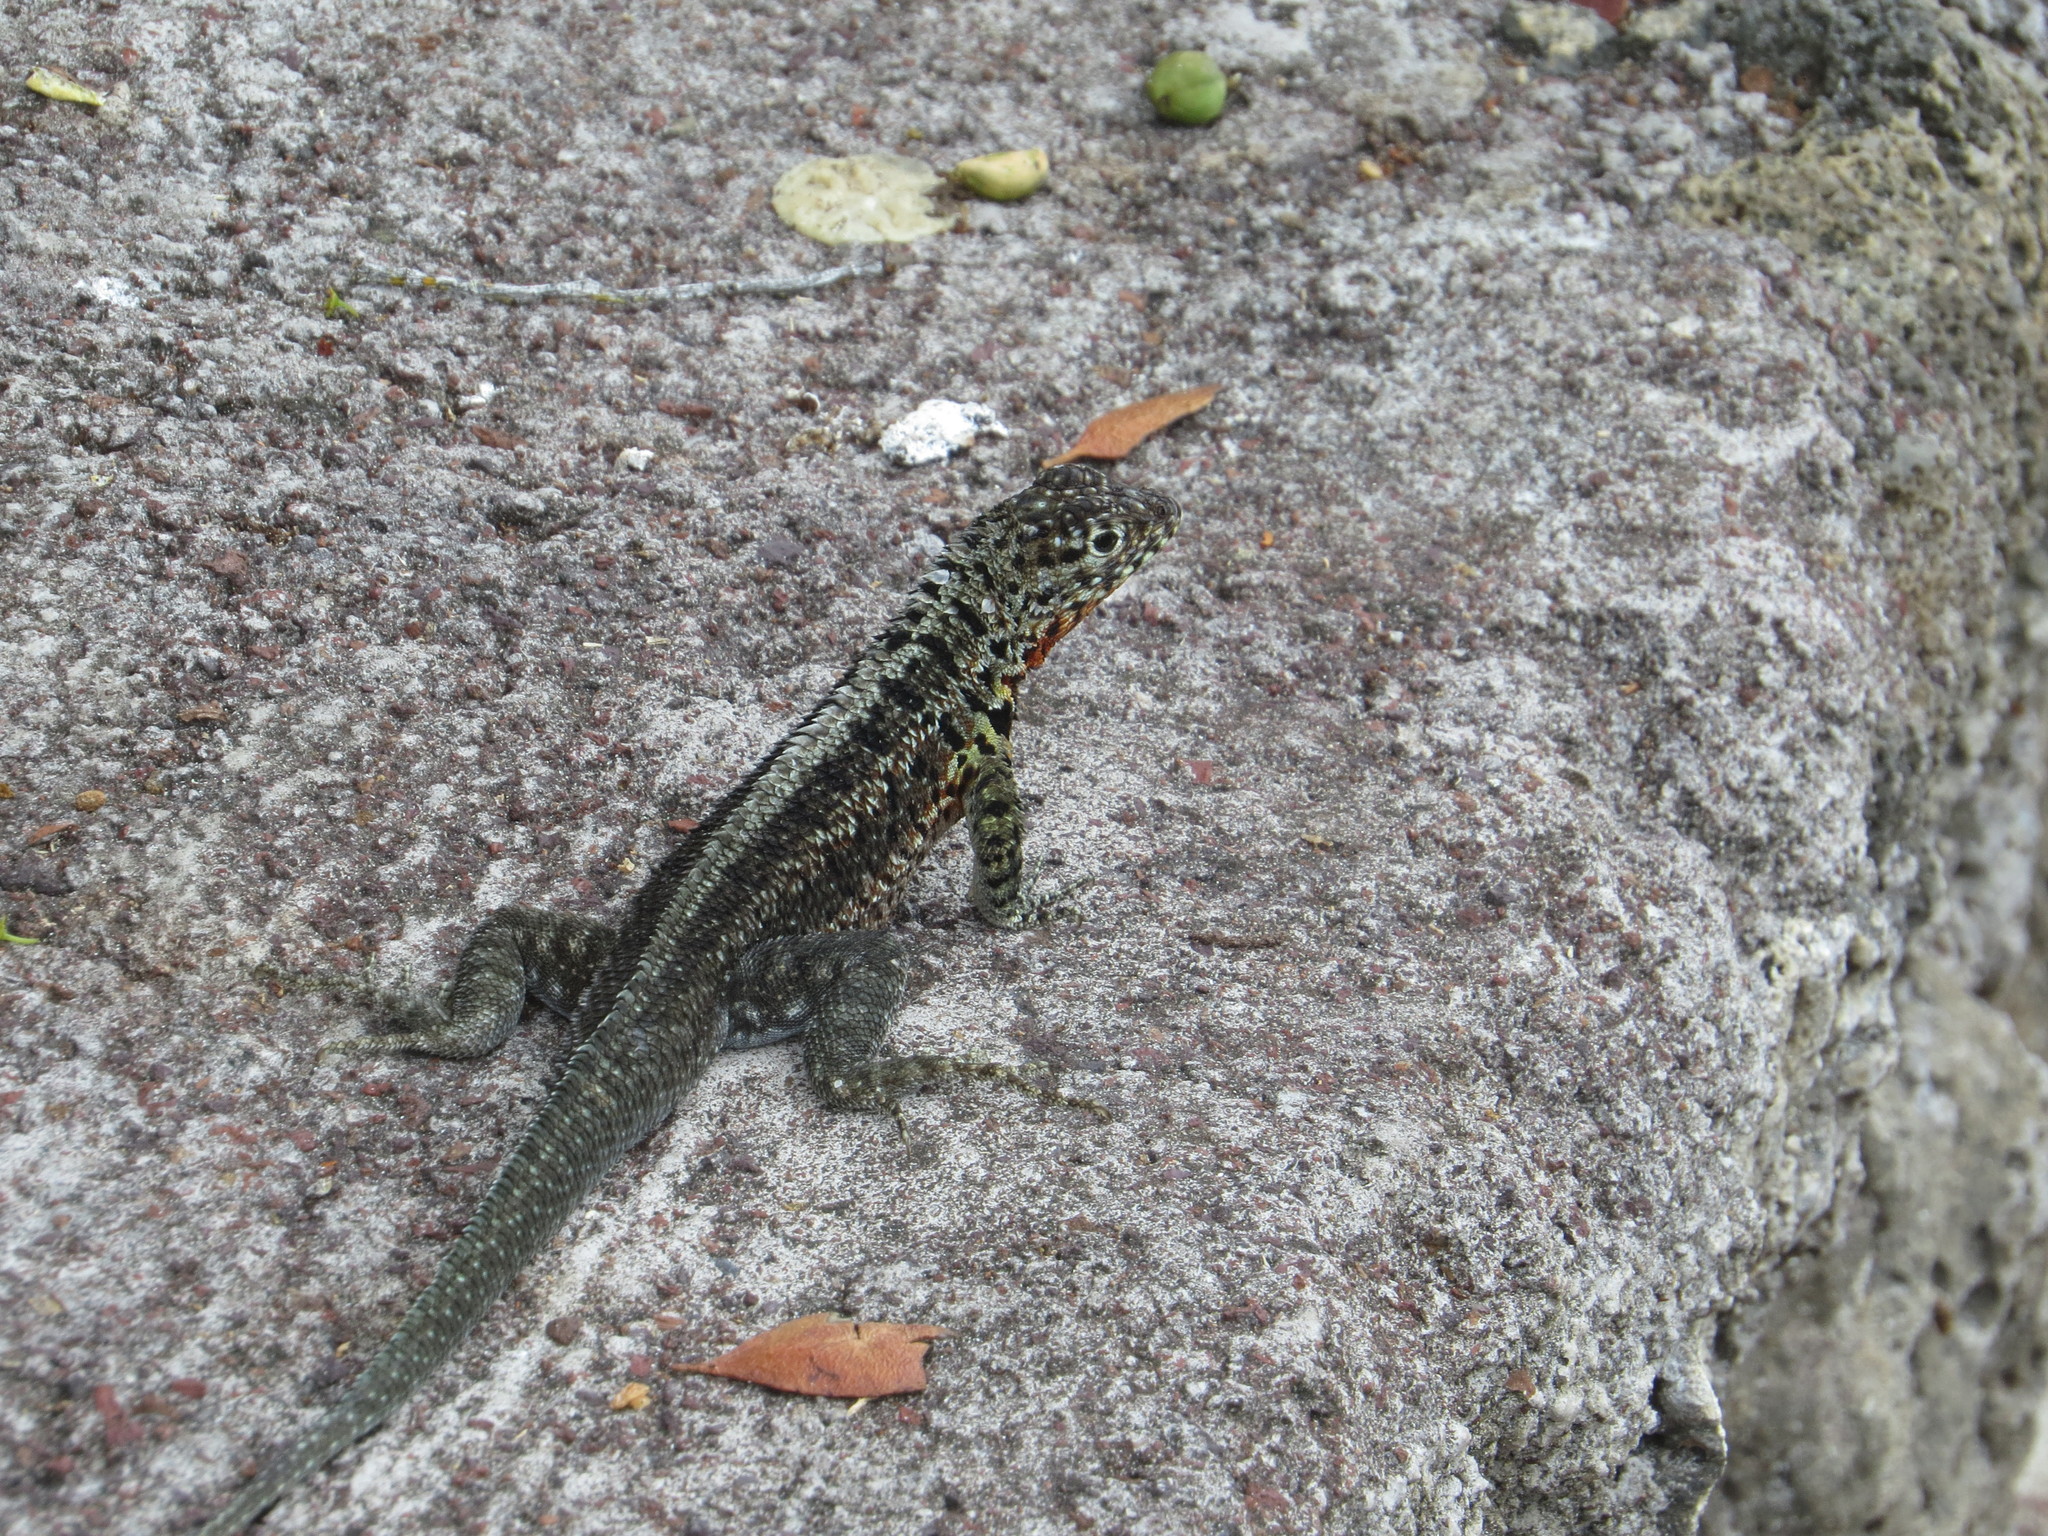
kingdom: Animalia
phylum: Chordata
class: Squamata
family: Tropiduridae
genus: Microlophus
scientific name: Microlophus indefatigabilis
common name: Galapagos lava lizard
